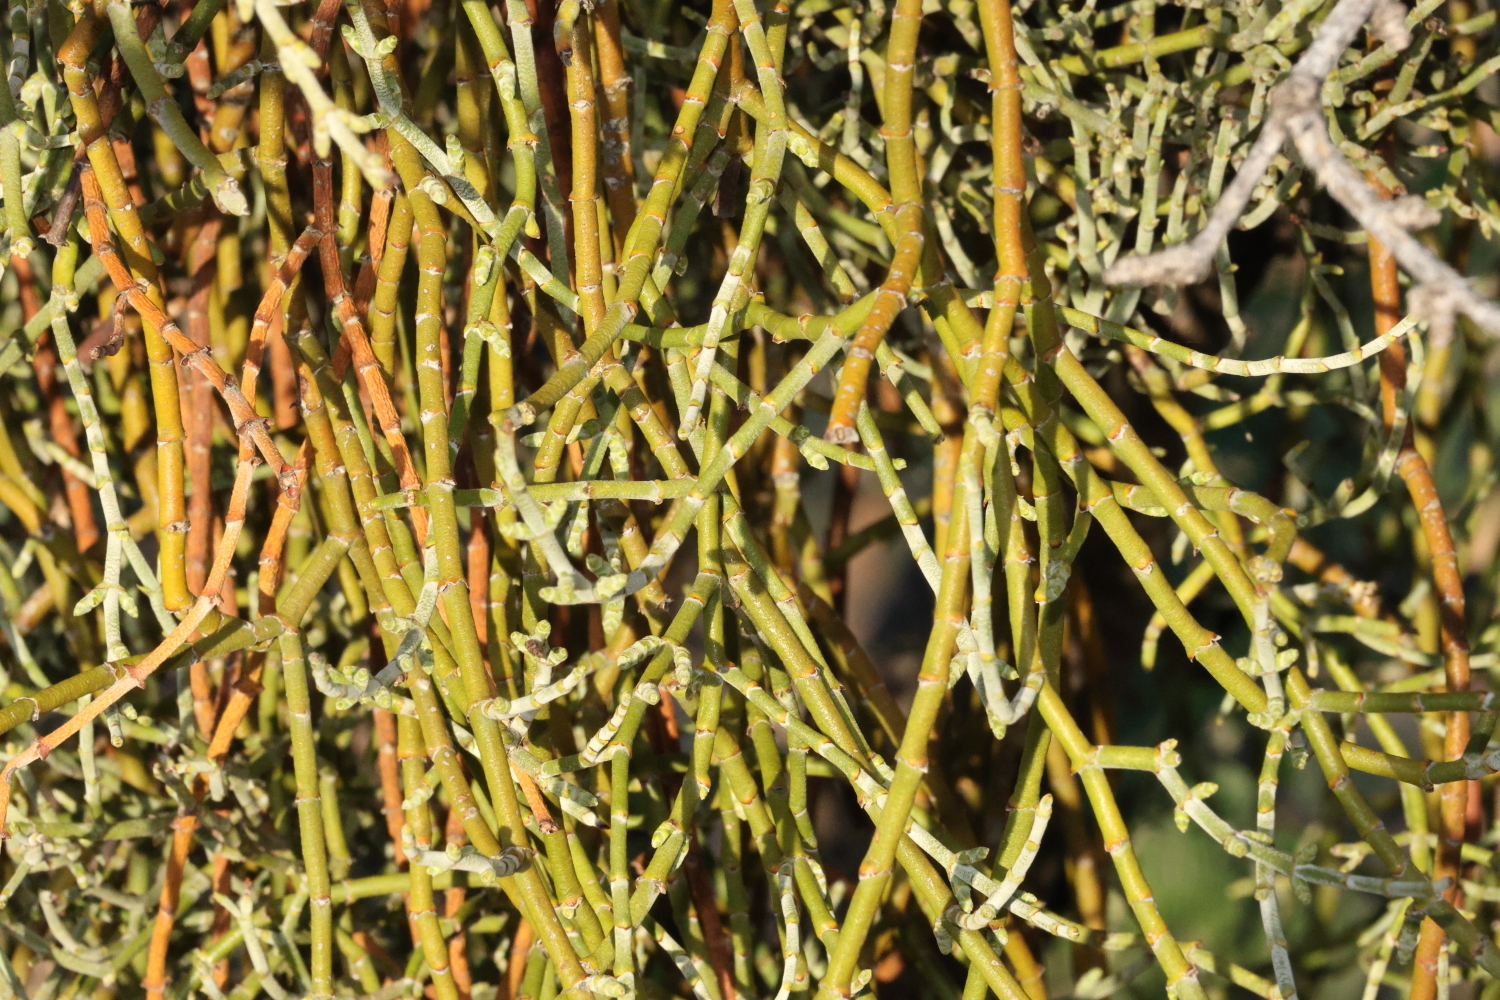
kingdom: Plantae
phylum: Tracheophyta
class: Magnoliopsida
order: Santalales
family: Viscaceae
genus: Phoradendron
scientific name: Phoradendron californicum
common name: Acacia mistletoe
